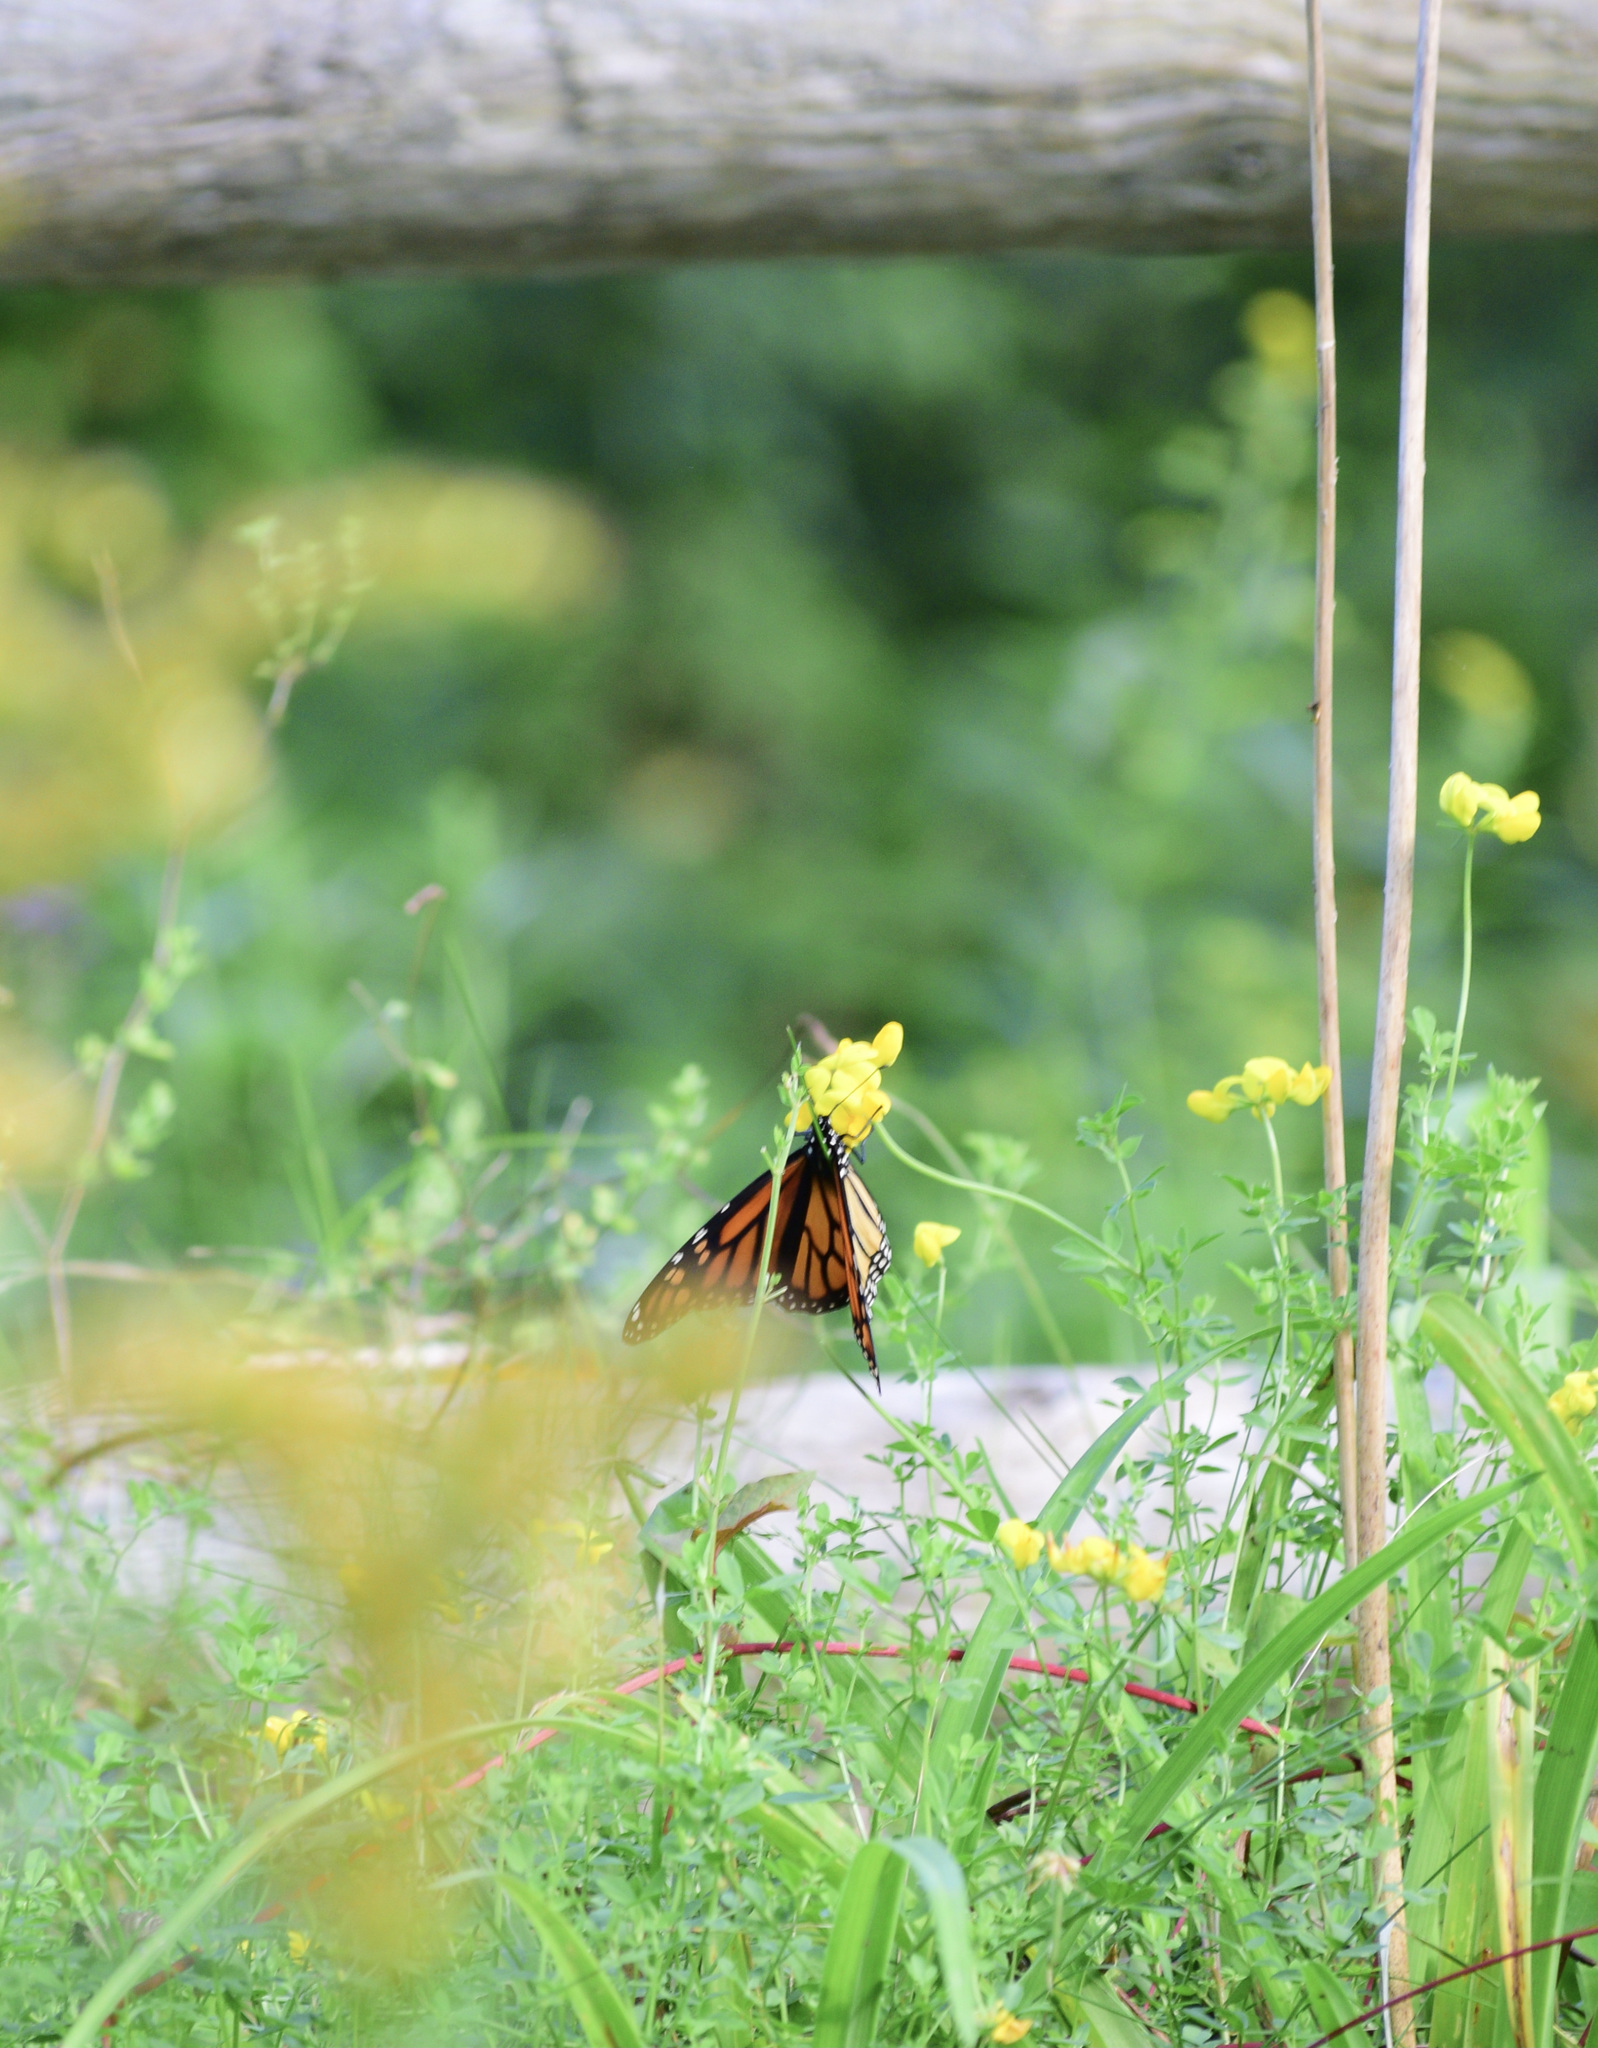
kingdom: Animalia
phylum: Arthropoda
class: Insecta
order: Lepidoptera
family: Nymphalidae
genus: Danaus
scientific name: Danaus plexippus
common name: Monarch
